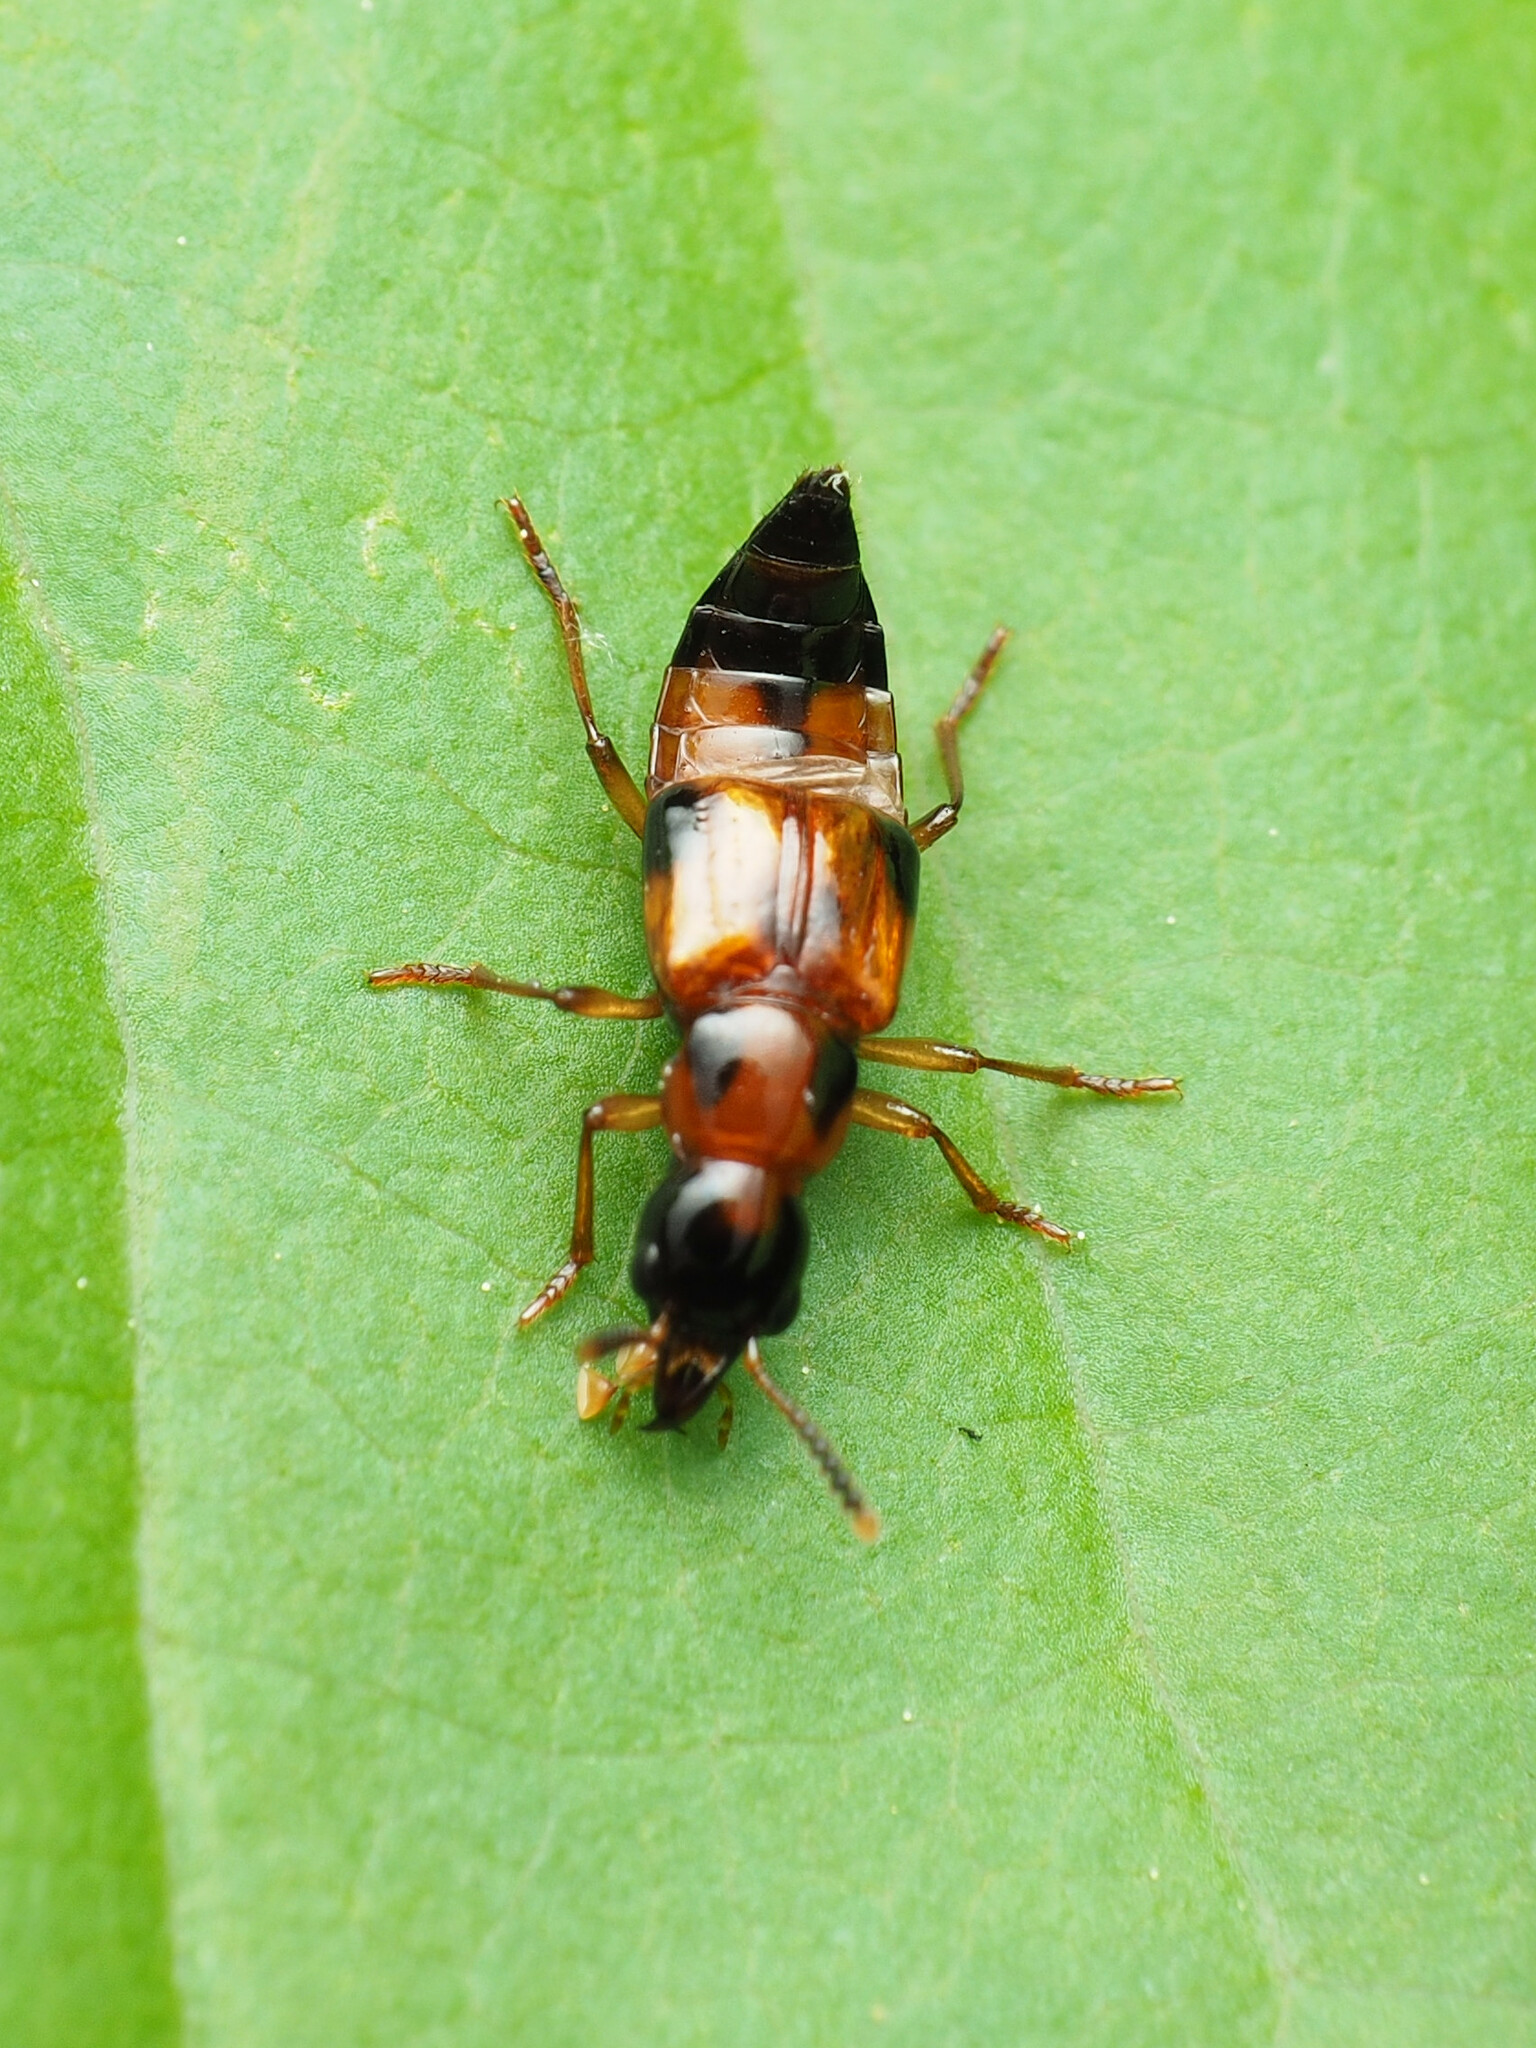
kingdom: Animalia
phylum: Arthropoda
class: Insecta
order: Coleoptera
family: Staphylinidae
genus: Pseudoxyporus
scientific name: Pseudoxyporus quinquemaculatus
